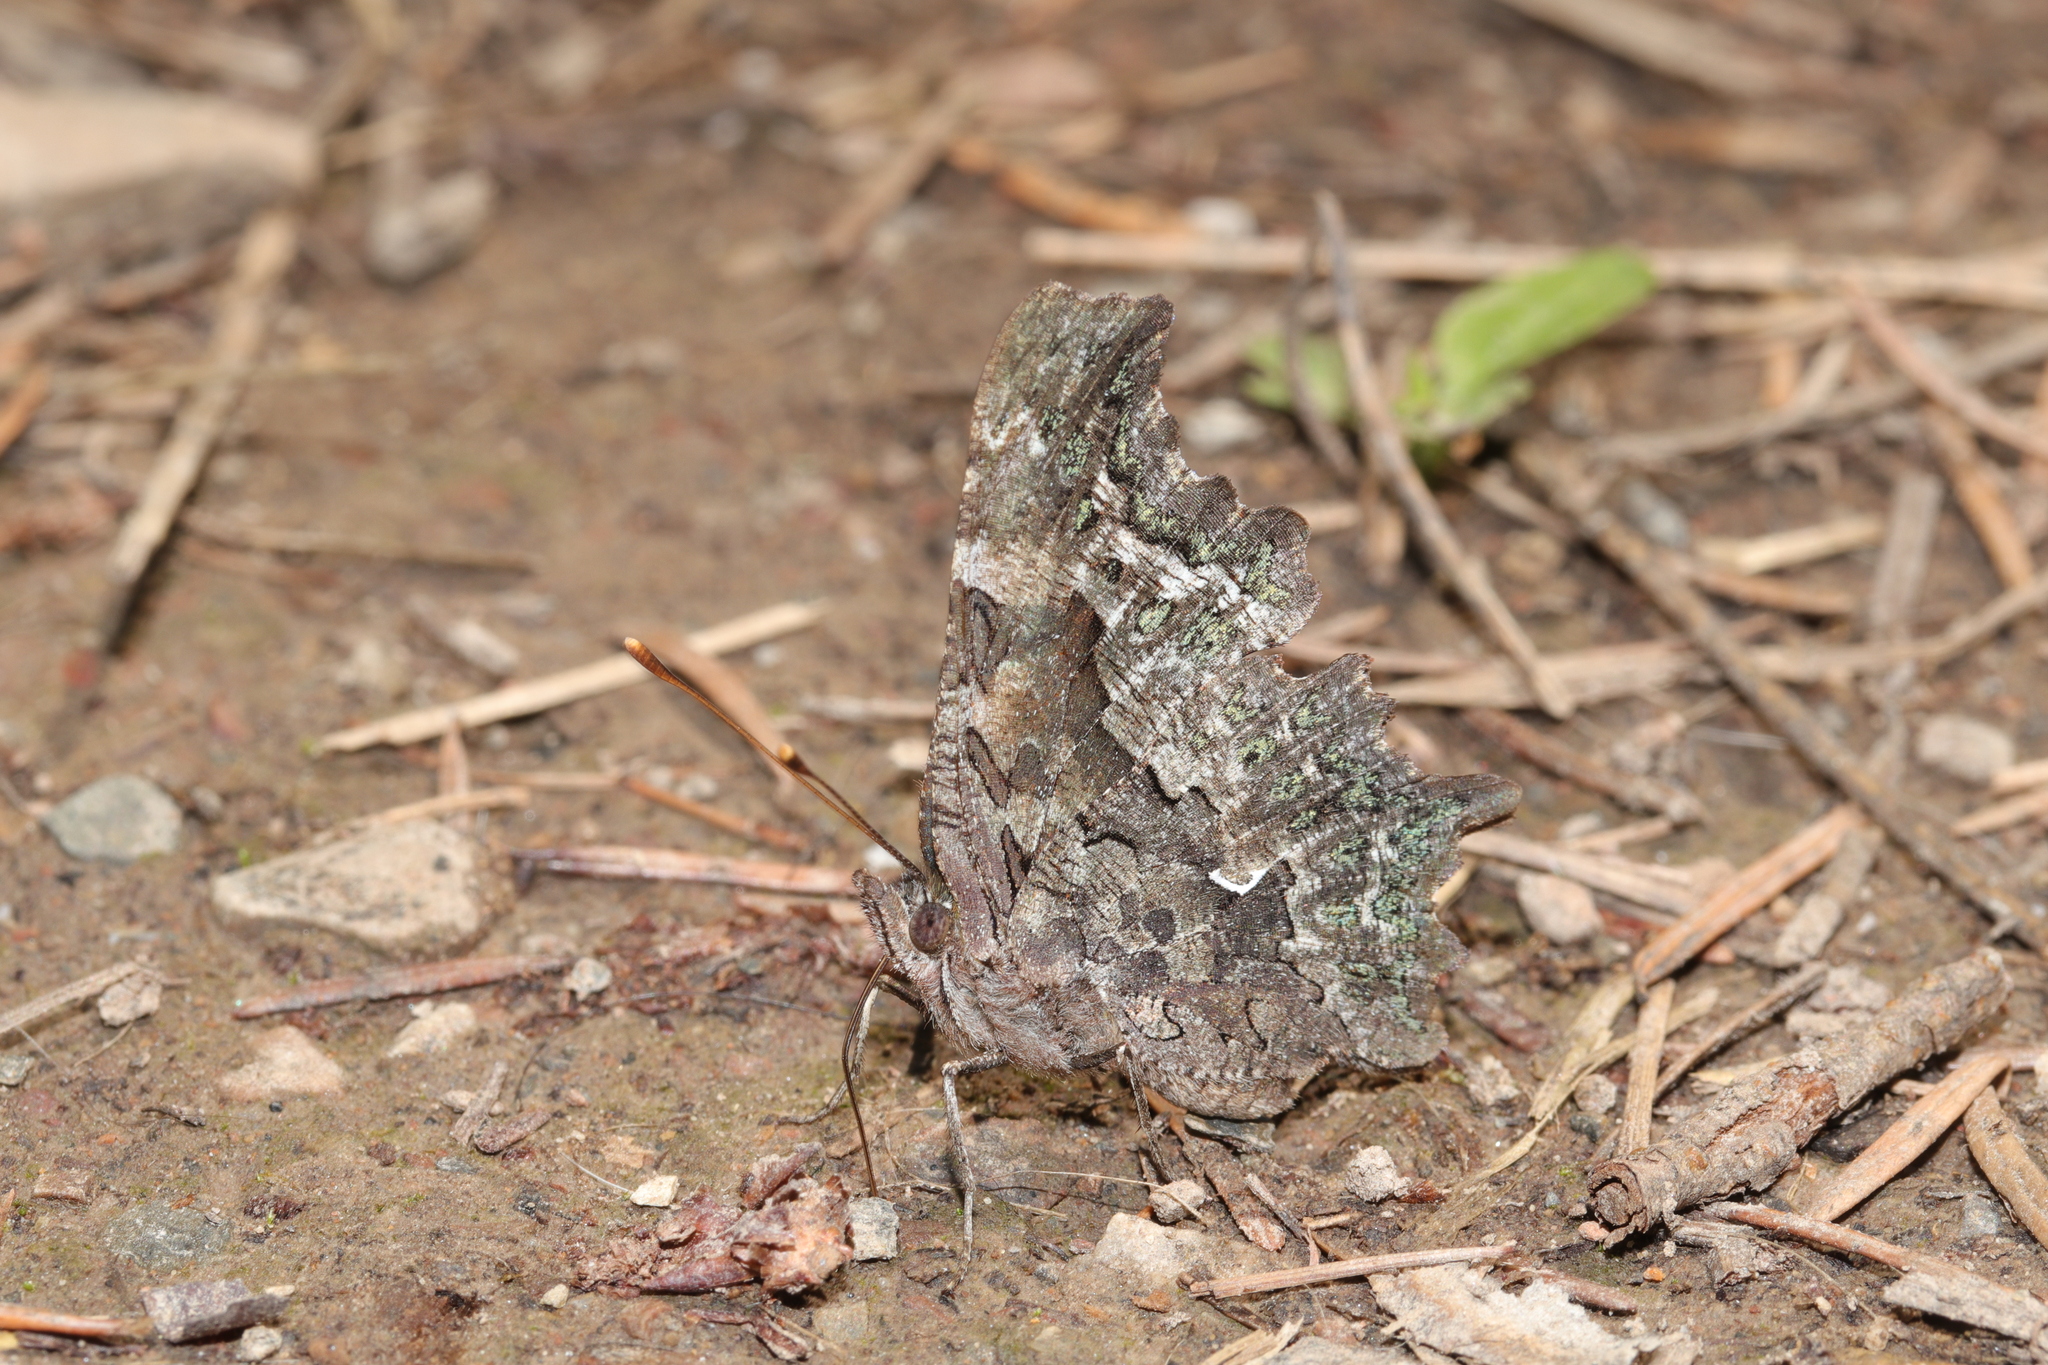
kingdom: Animalia
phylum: Arthropoda
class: Insecta
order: Lepidoptera
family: Nymphalidae
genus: Polygonia
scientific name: Polygonia faunus
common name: Green comma
